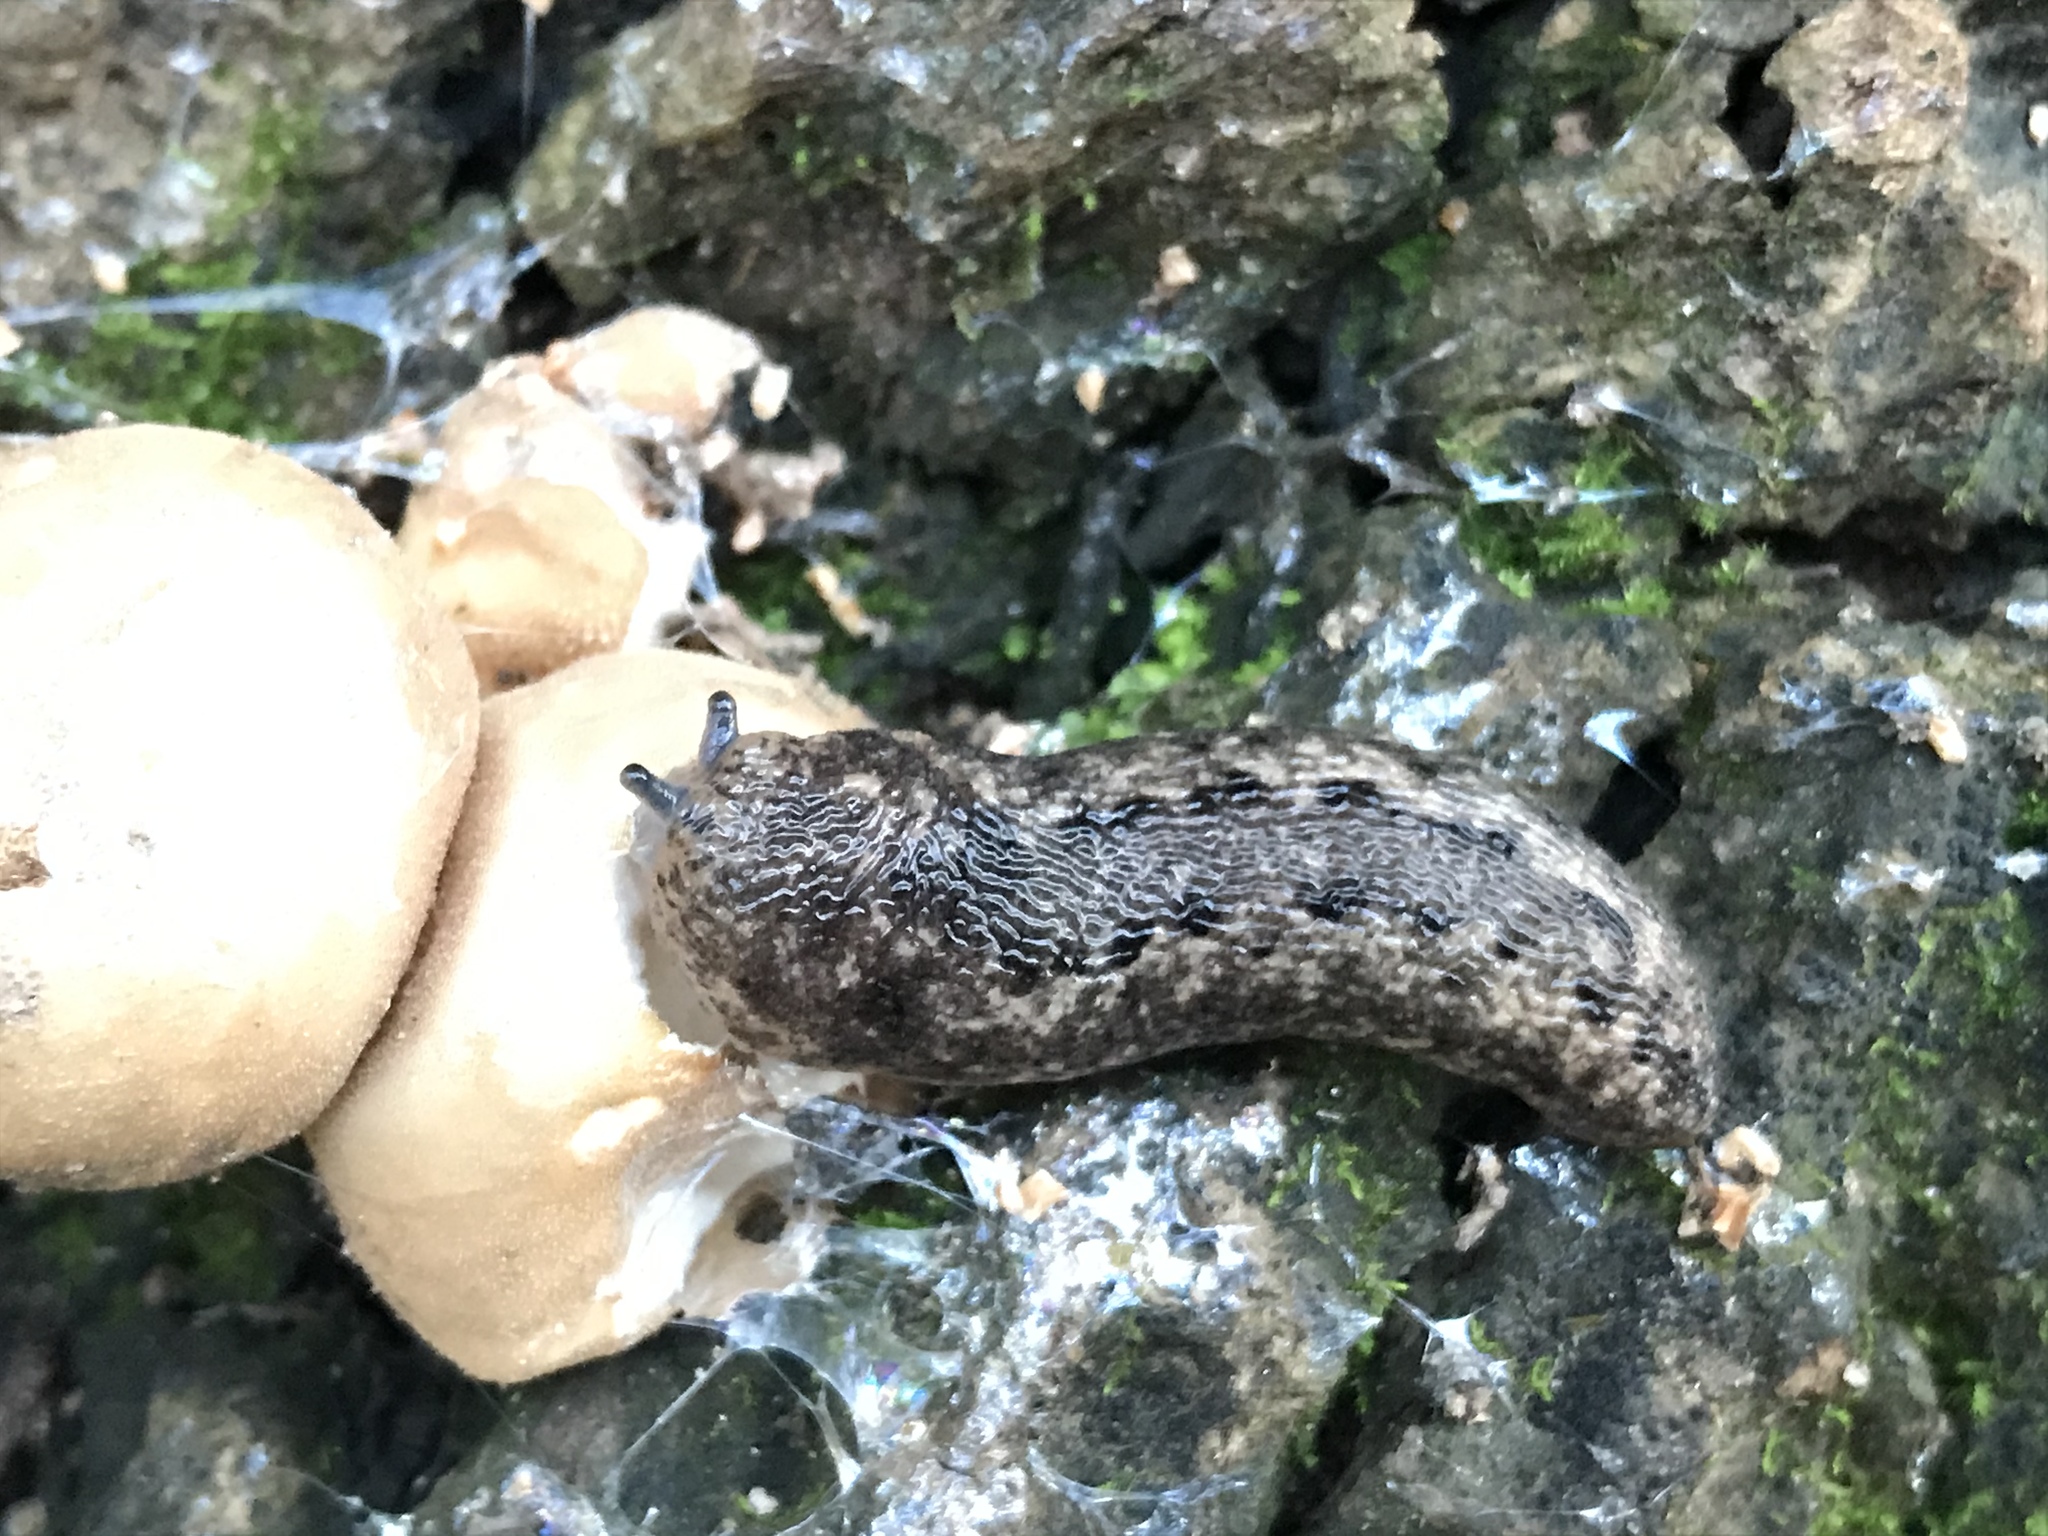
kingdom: Animalia
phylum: Mollusca
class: Gastropoda
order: Stylommatophora
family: Philomycidae
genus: Philomycus
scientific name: Philomycus carolinianus
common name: Carolina mantleslug
